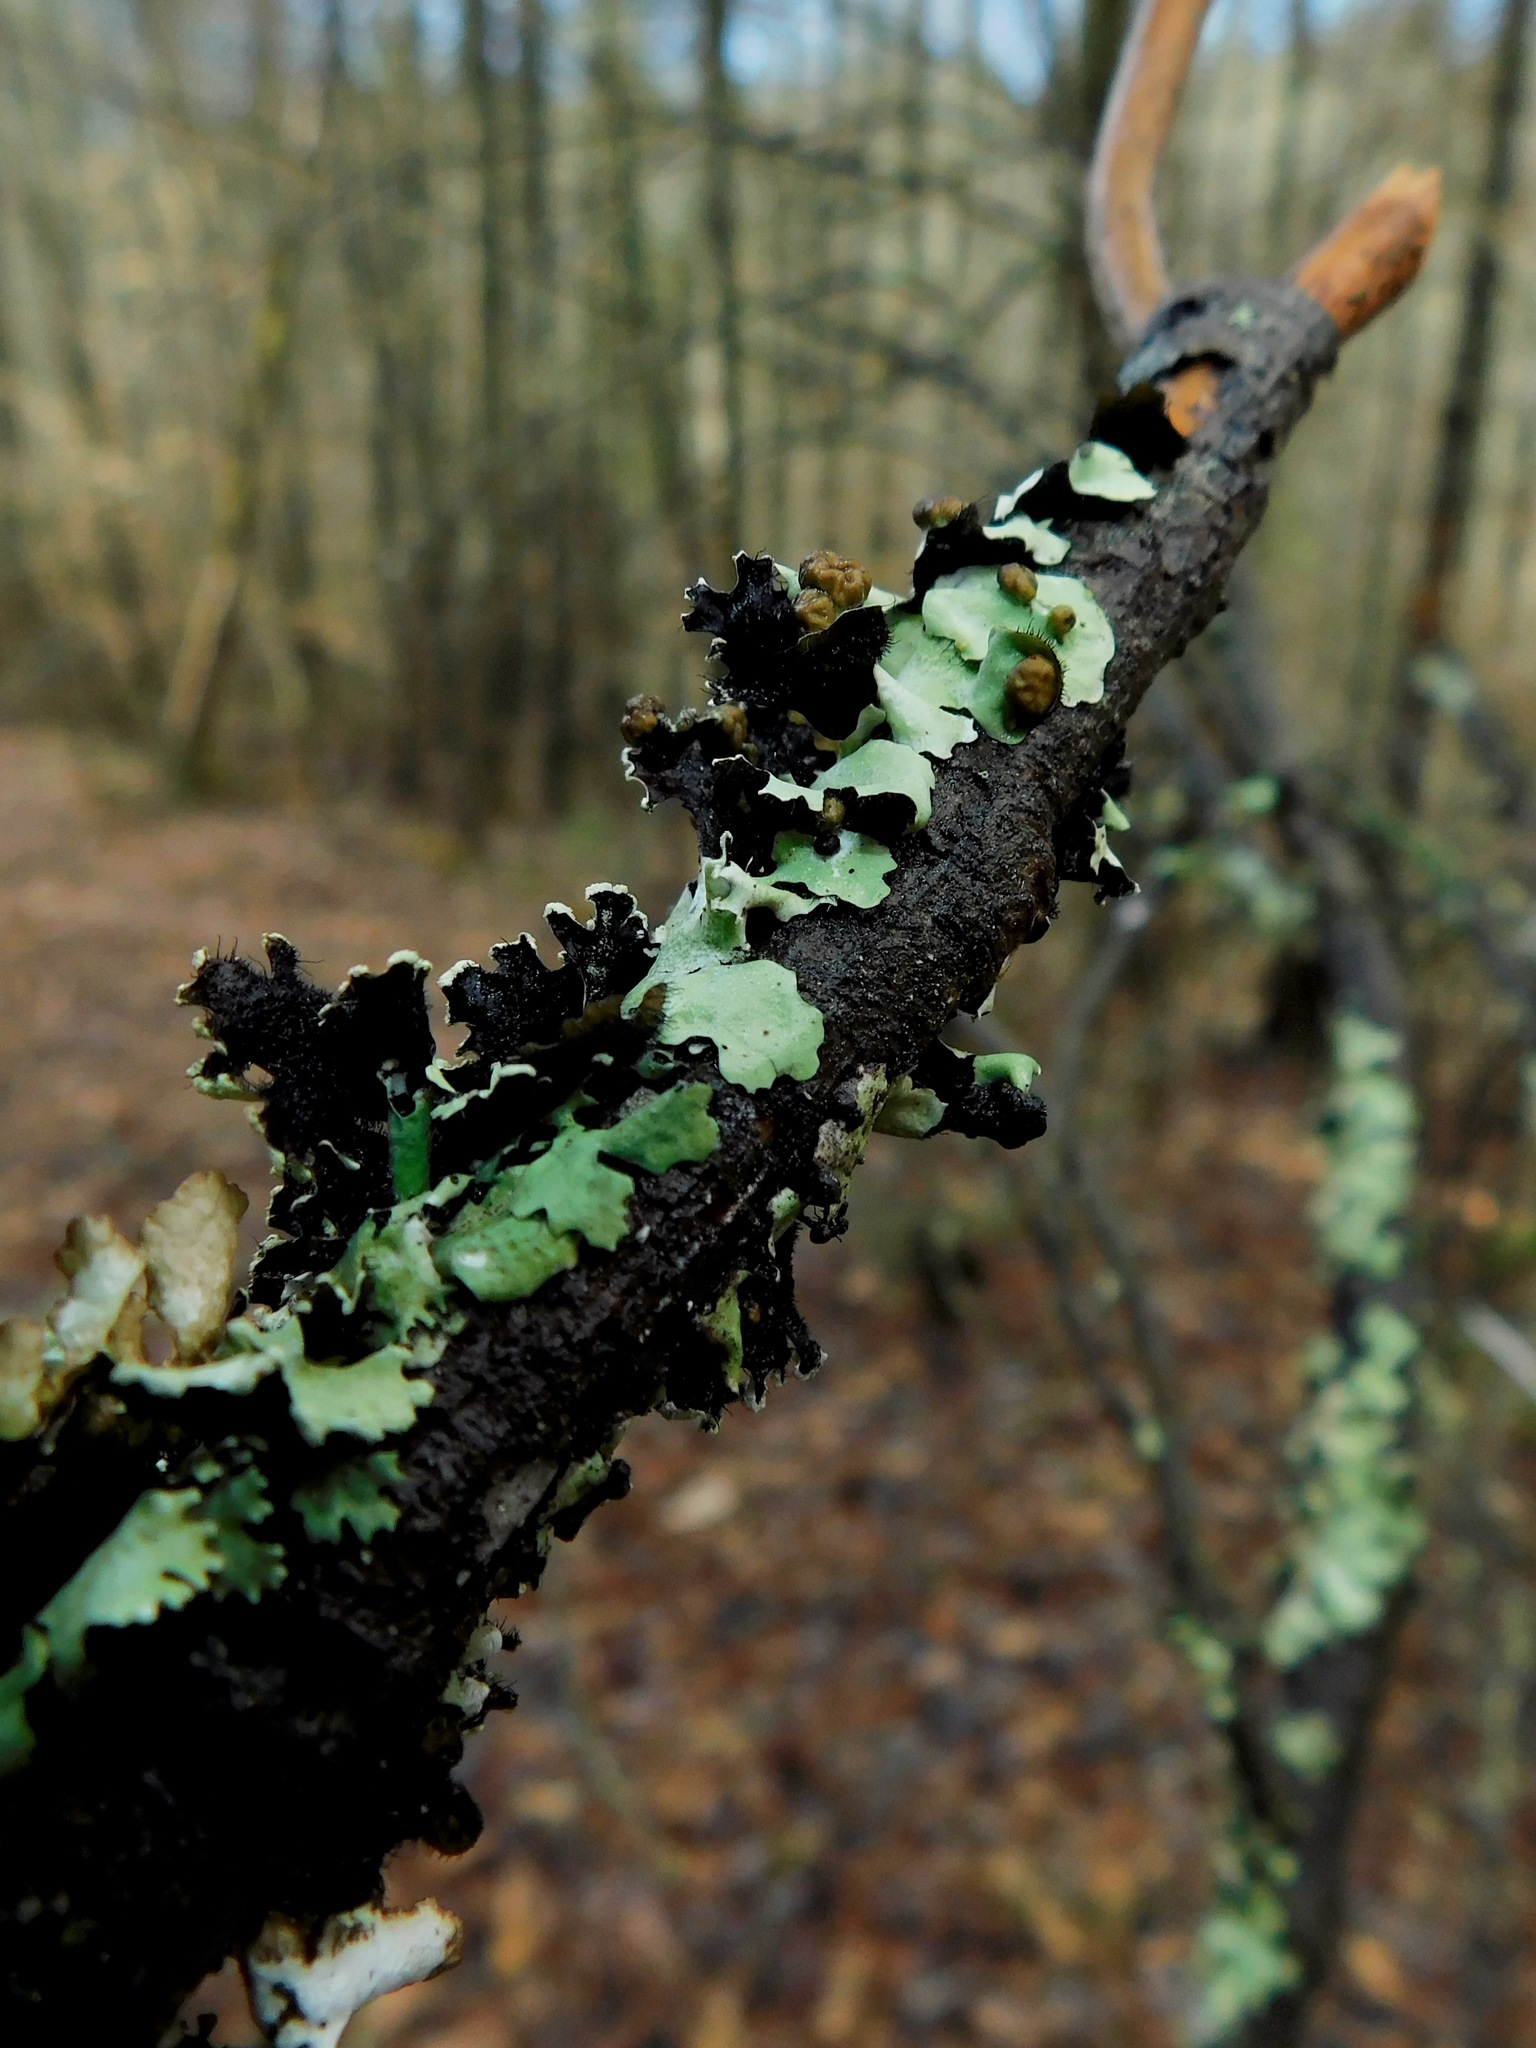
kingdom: Fungi
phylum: Ascomycota
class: Lecanoromycetes
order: Lecanorales
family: Parmeliaceae
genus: Parmotrema
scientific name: Parmotrema reticulatum
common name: Black sheet lichen
